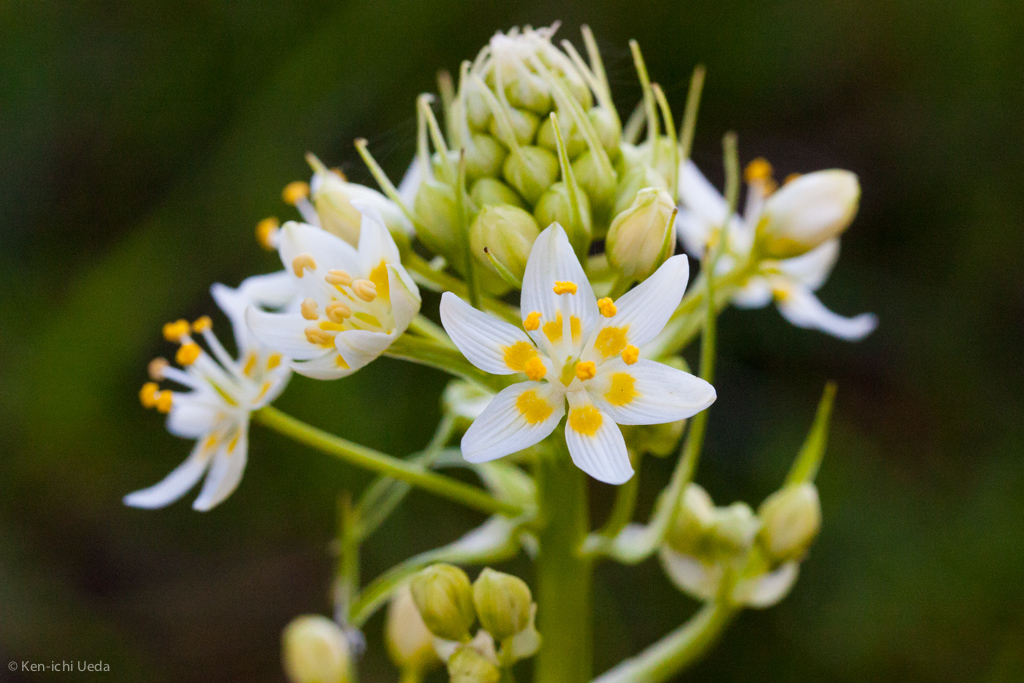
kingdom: Plantae
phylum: Tracheophyta
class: Liliopsida
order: Liliales
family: Melanthiaceae
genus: Toxicoscordion
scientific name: Toxicoscordion fremontii
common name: Fremont's death camas
